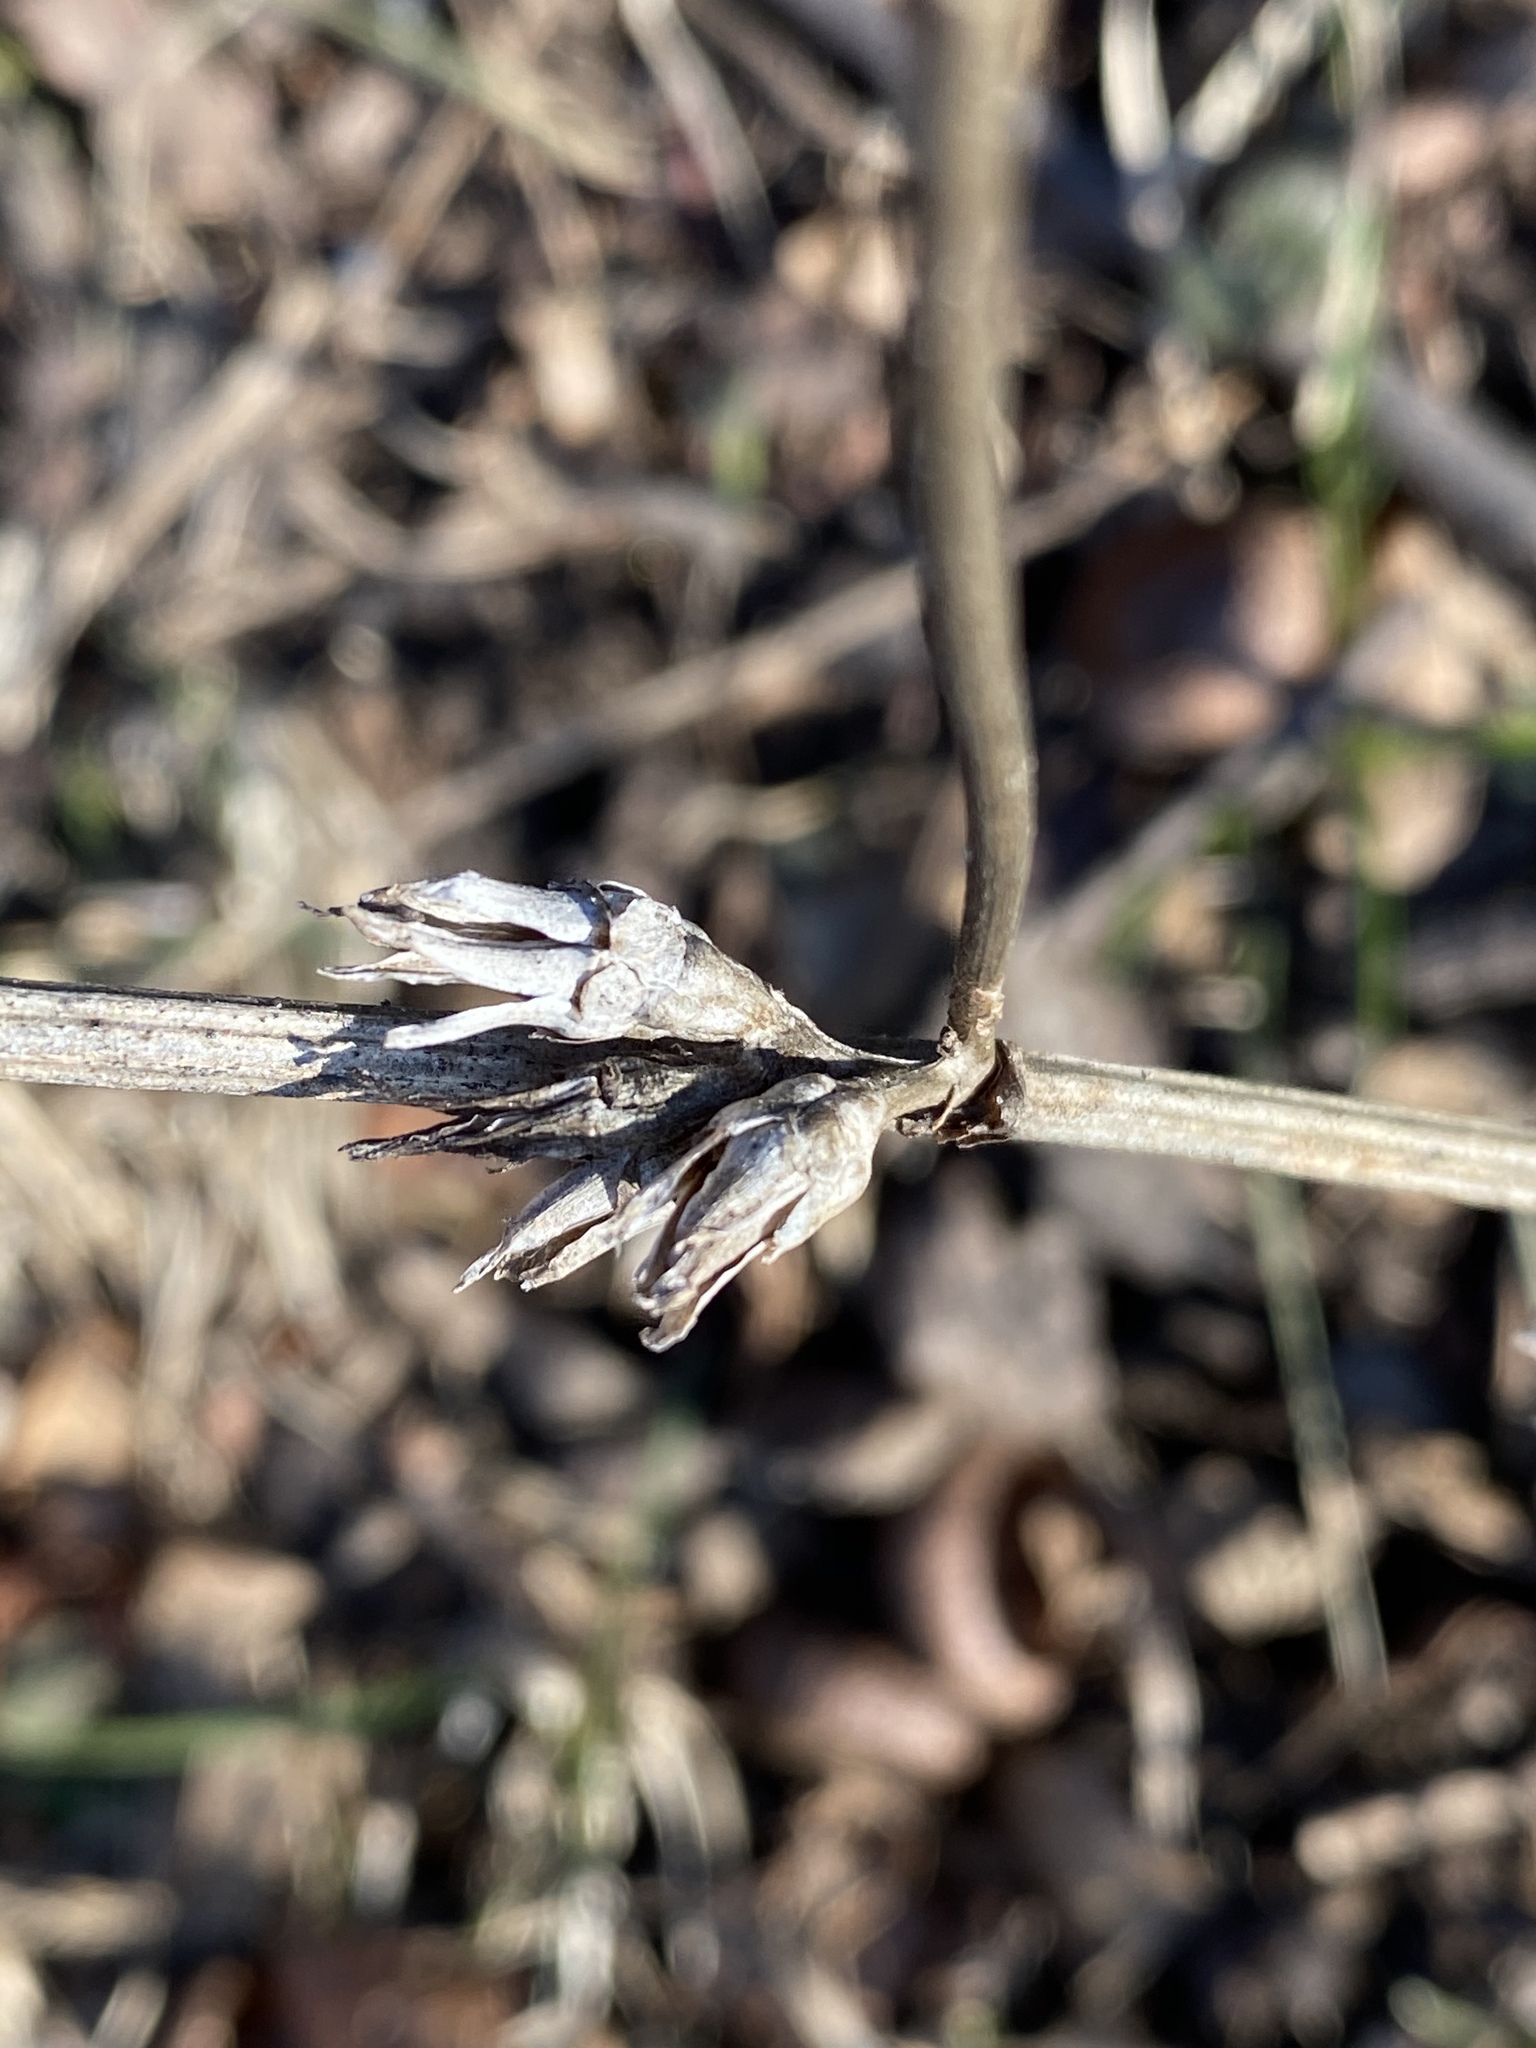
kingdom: Plantae
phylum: Tracheophyta
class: Magnoliopsida
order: Asterales
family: Asteraceae
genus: Cichorium
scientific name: Cichorium intybus
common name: Chicory
